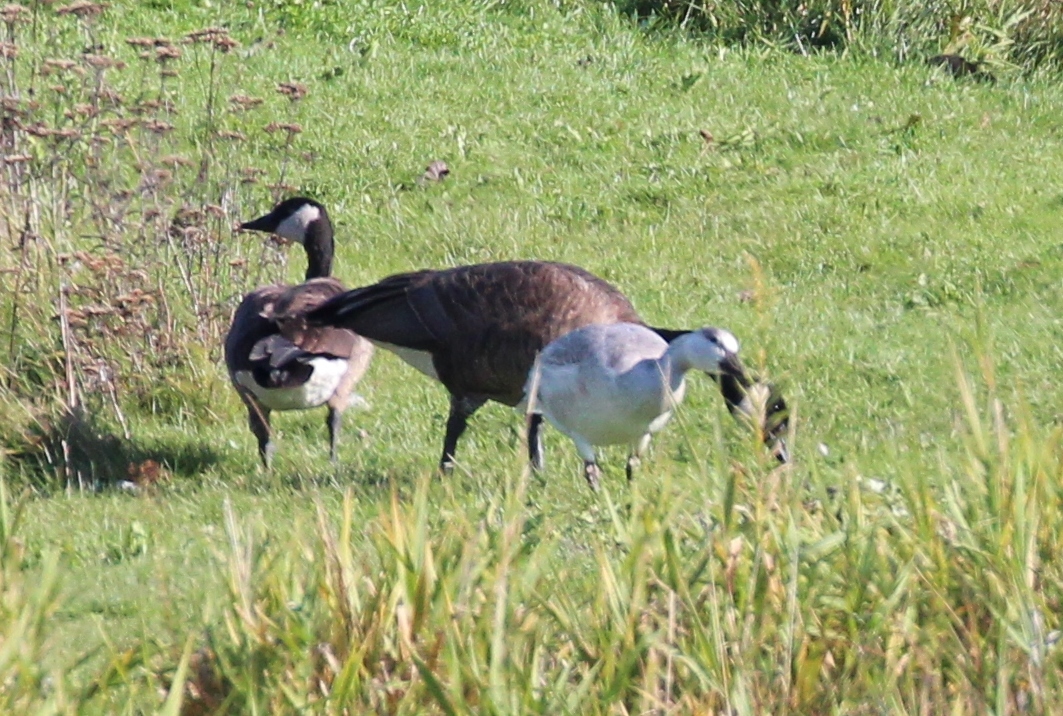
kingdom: Animalia
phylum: Chordata
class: Aves
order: Anseriformes
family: Anatidae
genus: Branta
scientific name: Branta canadensis
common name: Canada goose
